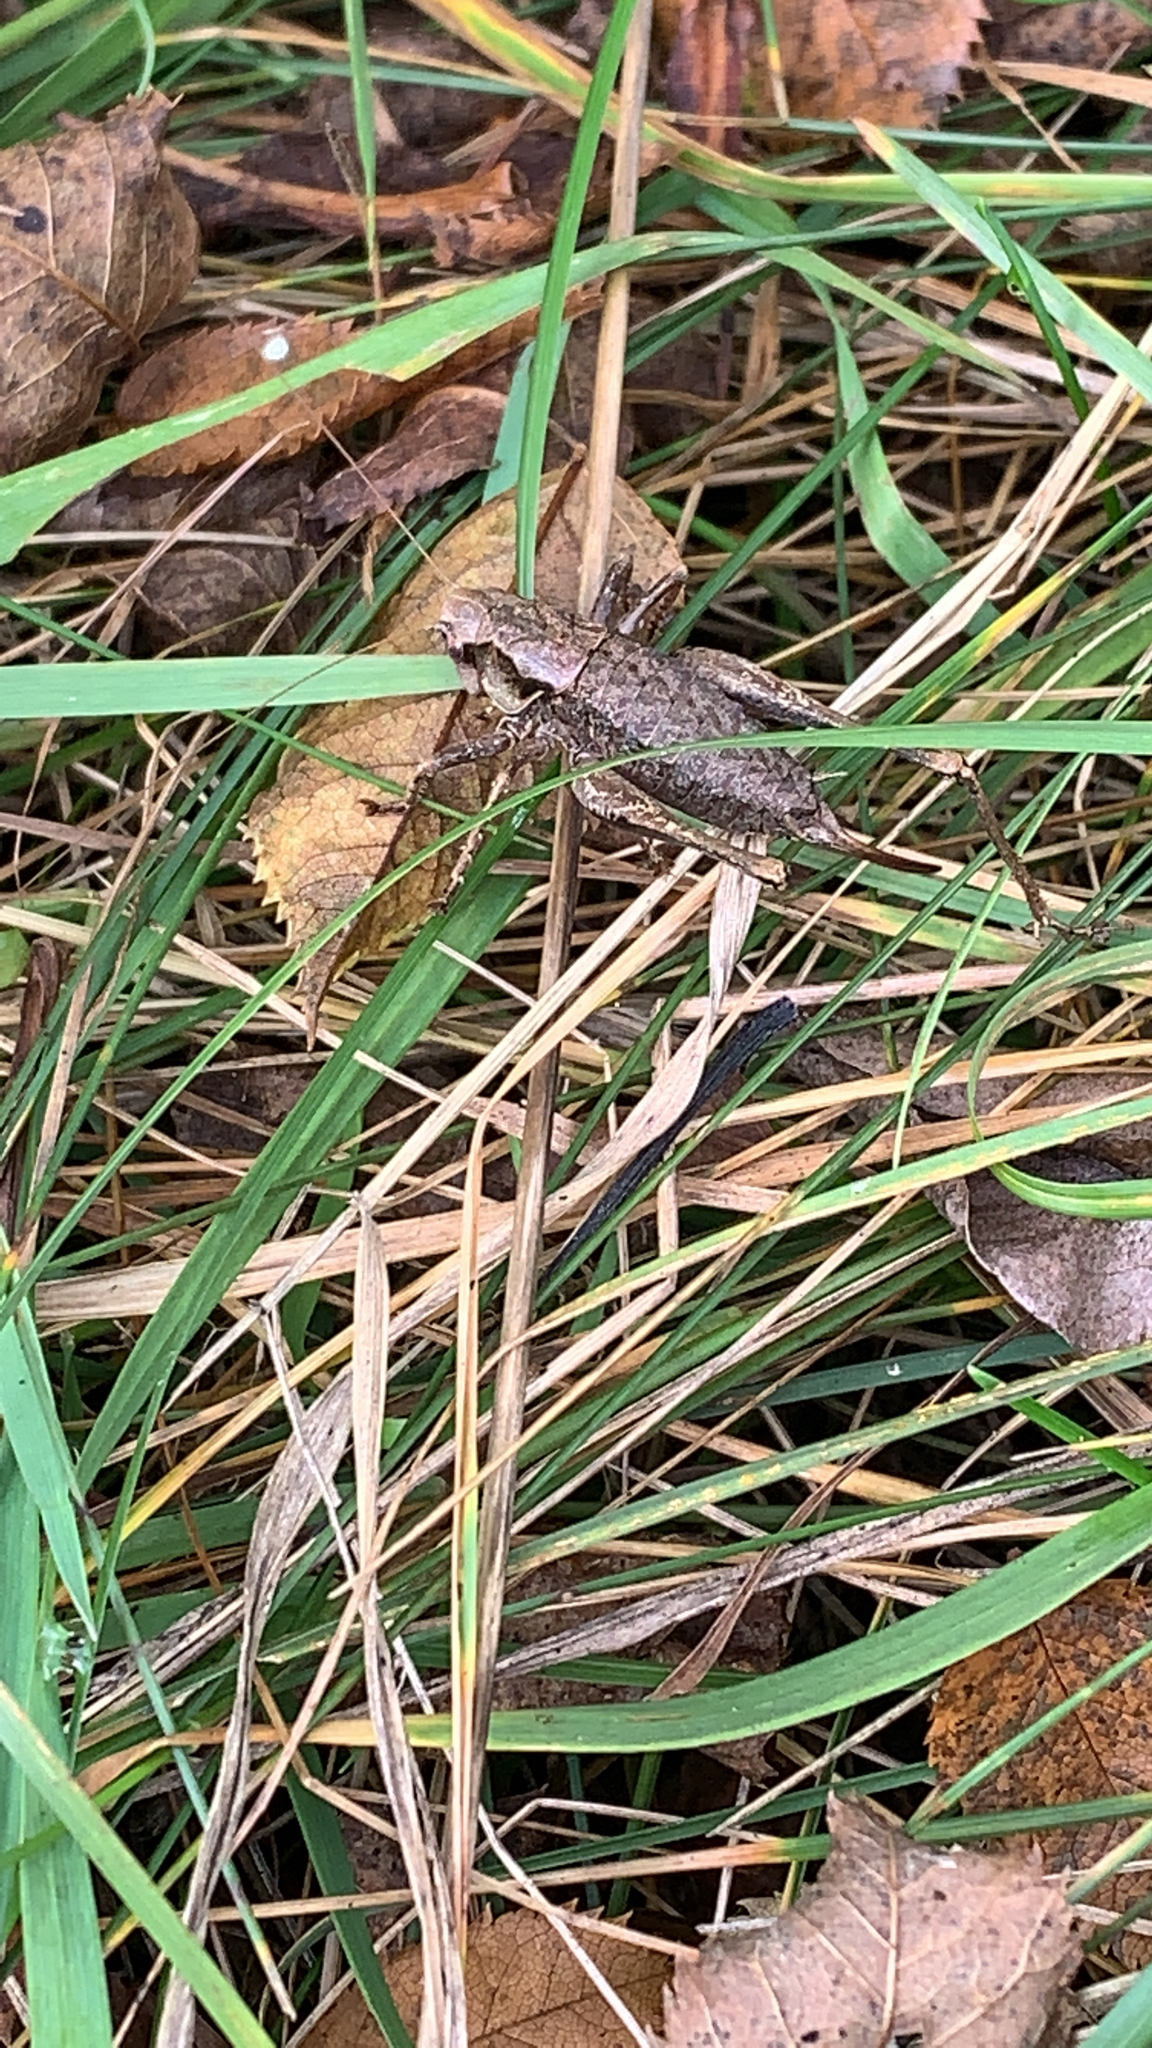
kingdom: Animalia
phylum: Arthropoda
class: Insecta
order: Orthoptera
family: Tettigoniidae
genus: Pholidoptera
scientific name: Pholidoptera griseoaptera
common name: Dark bush-cricket
